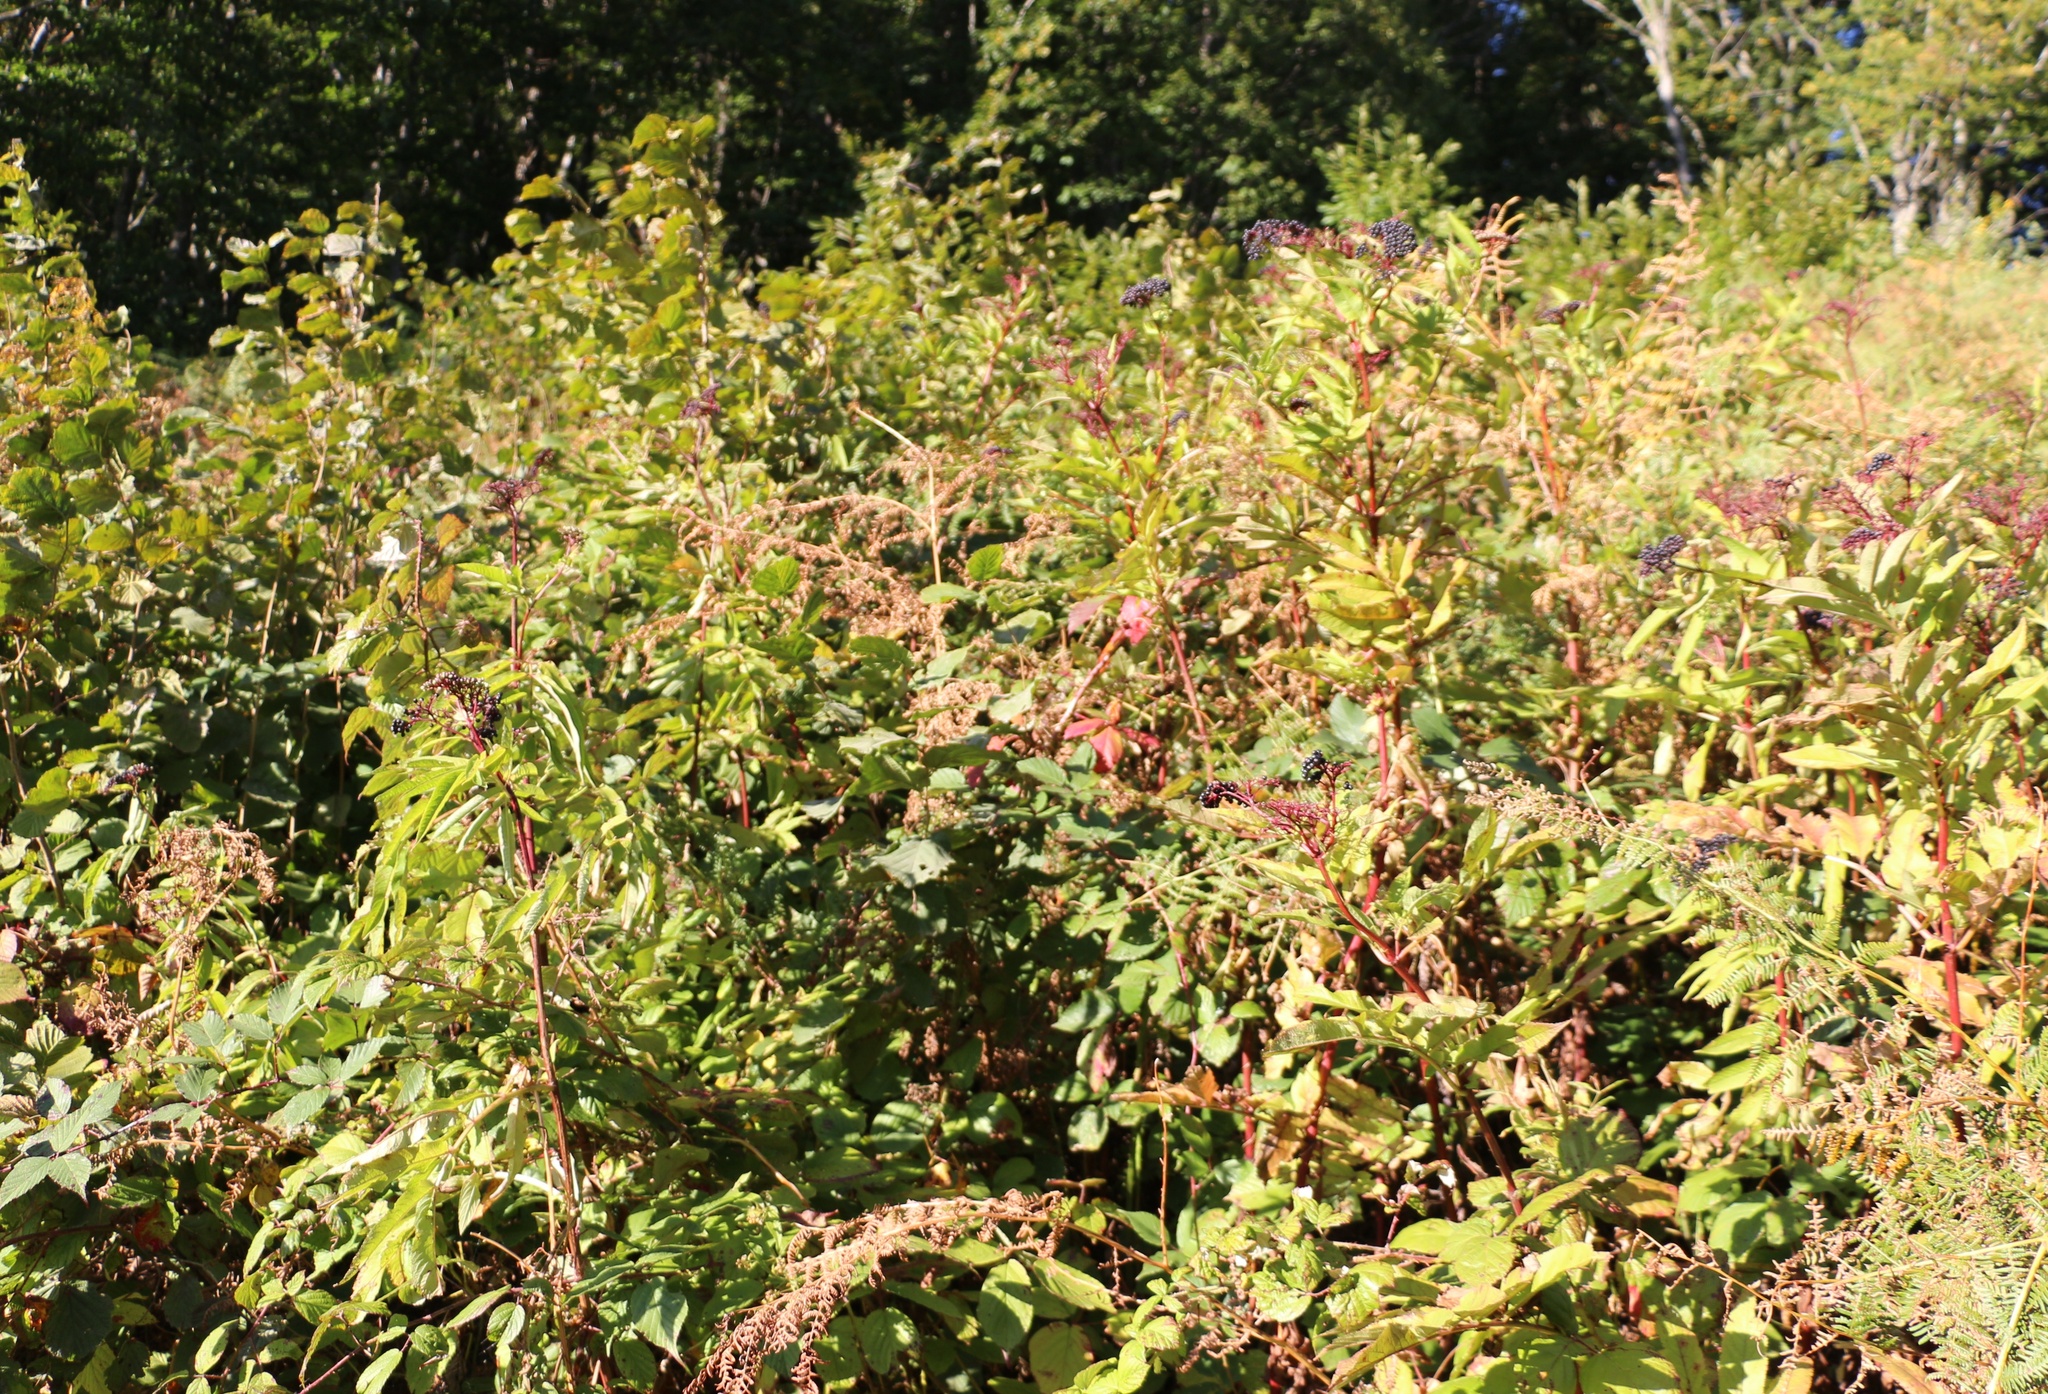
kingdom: Plantae
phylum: Tracheophyta
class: Magnoliopsida
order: Dipsacales
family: Viburnaceae
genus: Sambucus
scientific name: Sambucus ebulus
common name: Dwarf elder
